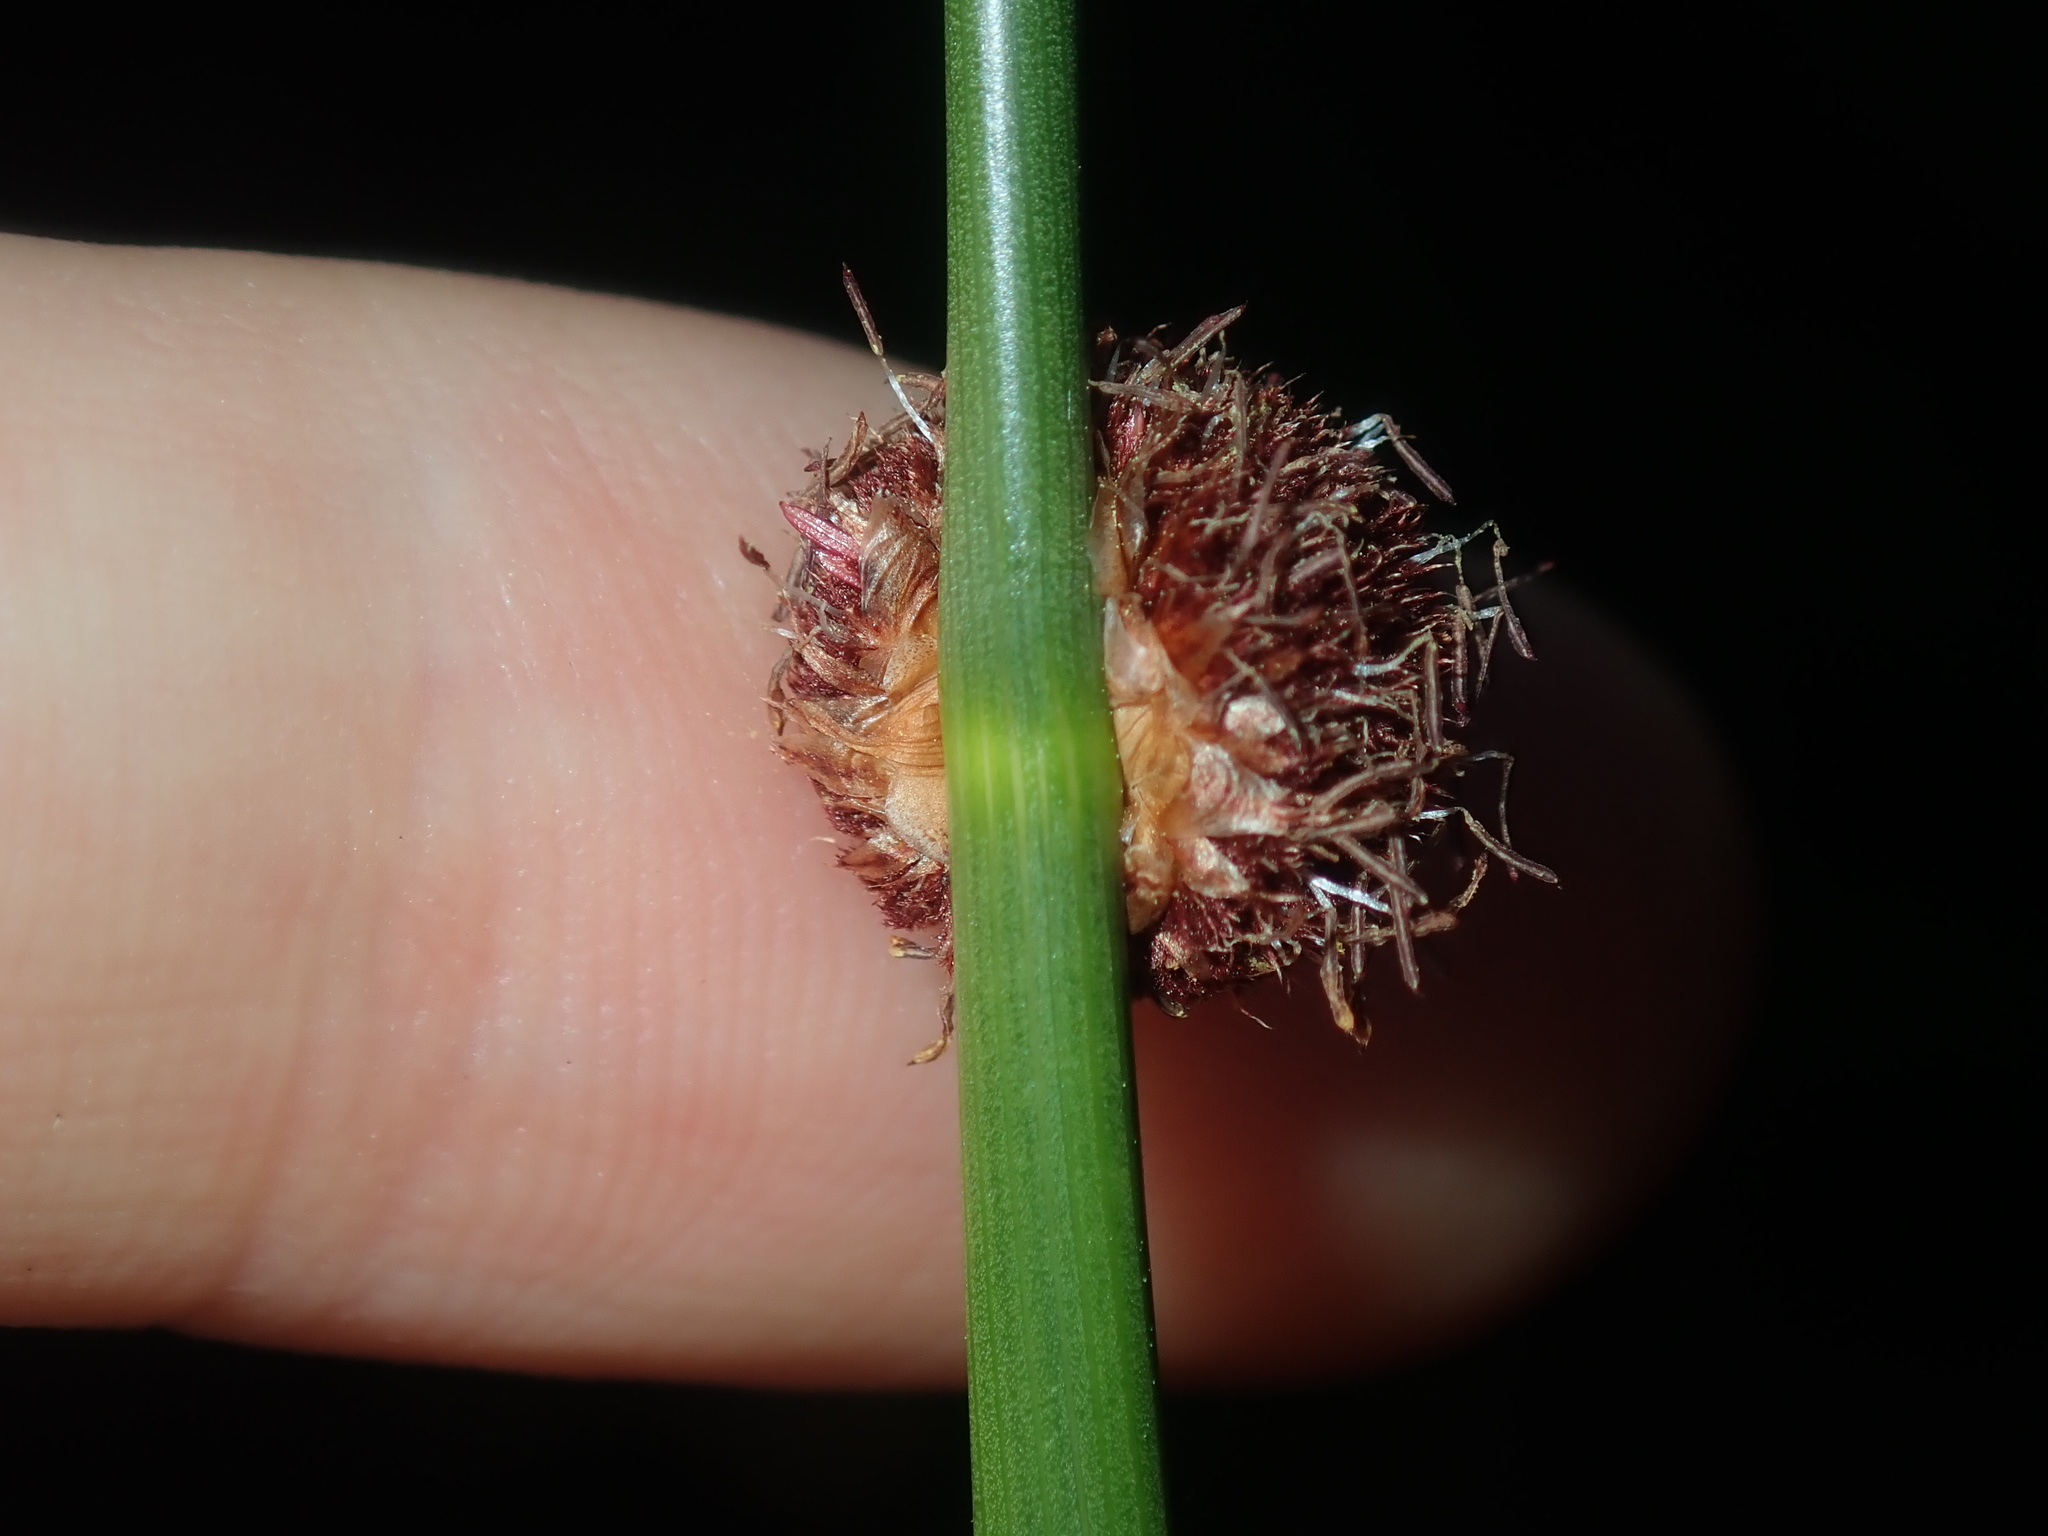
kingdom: Plantae
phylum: Tracheophyta
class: Liliopsida
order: Poales
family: Cyperaceae
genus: Chorizandra
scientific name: Chorizandra sphaerocephala
